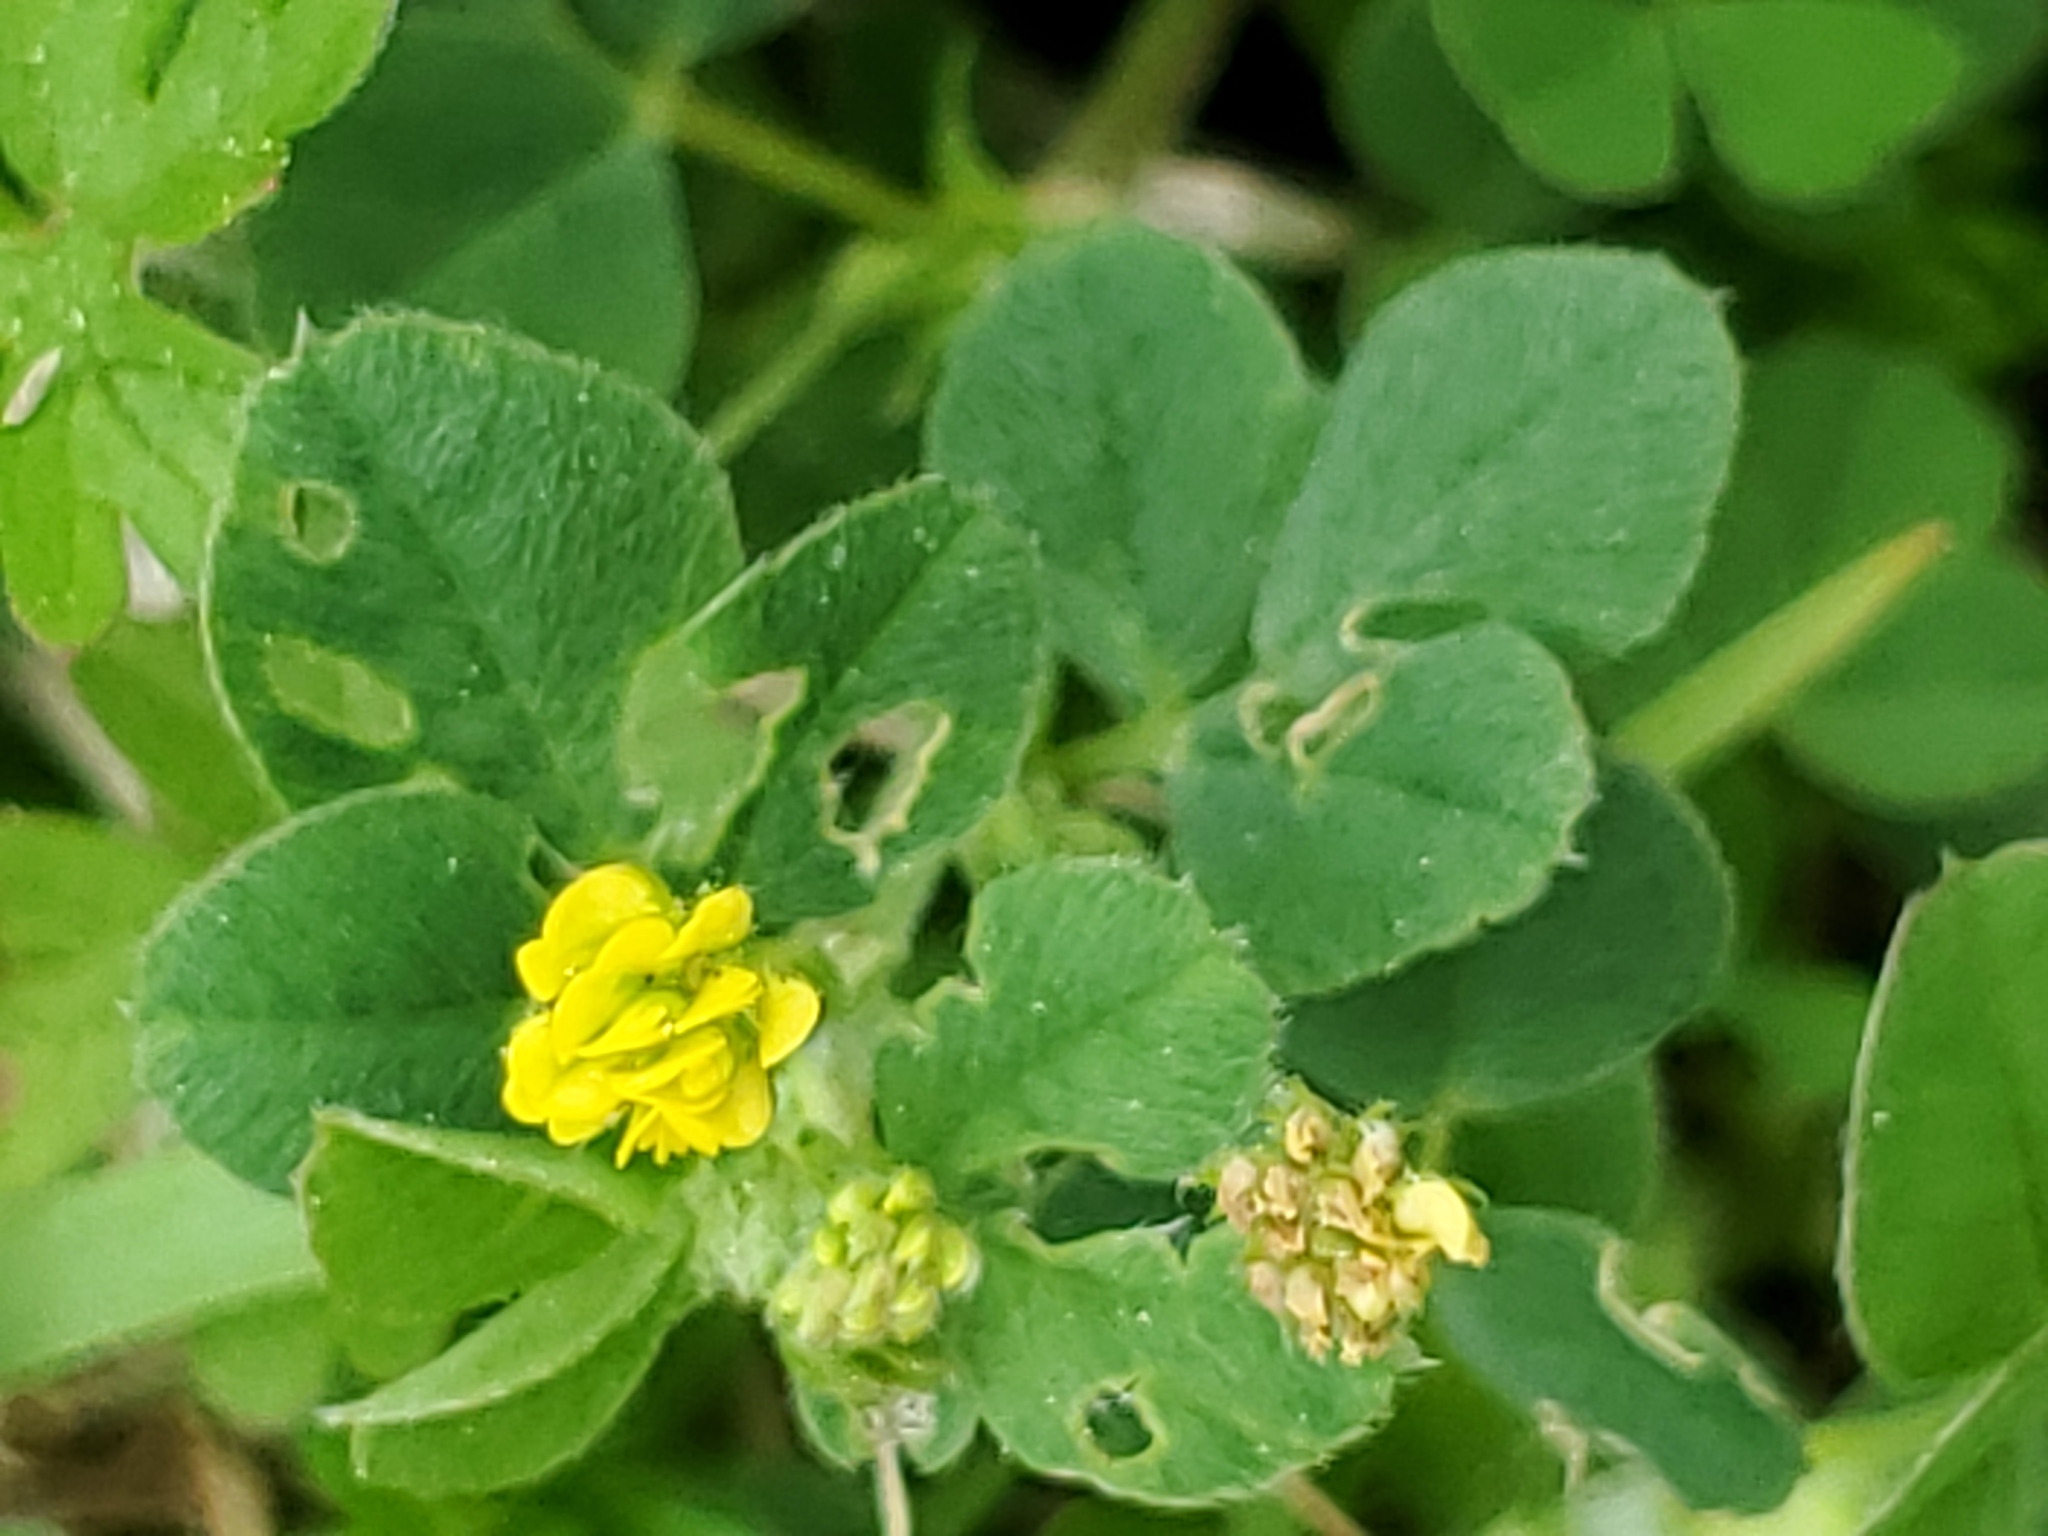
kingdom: Plantae
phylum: Tracheophyta
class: Magnoliopsida
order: Fabales
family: Fabaceae
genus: Medicago
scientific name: Medicago lupulina
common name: Black medick
